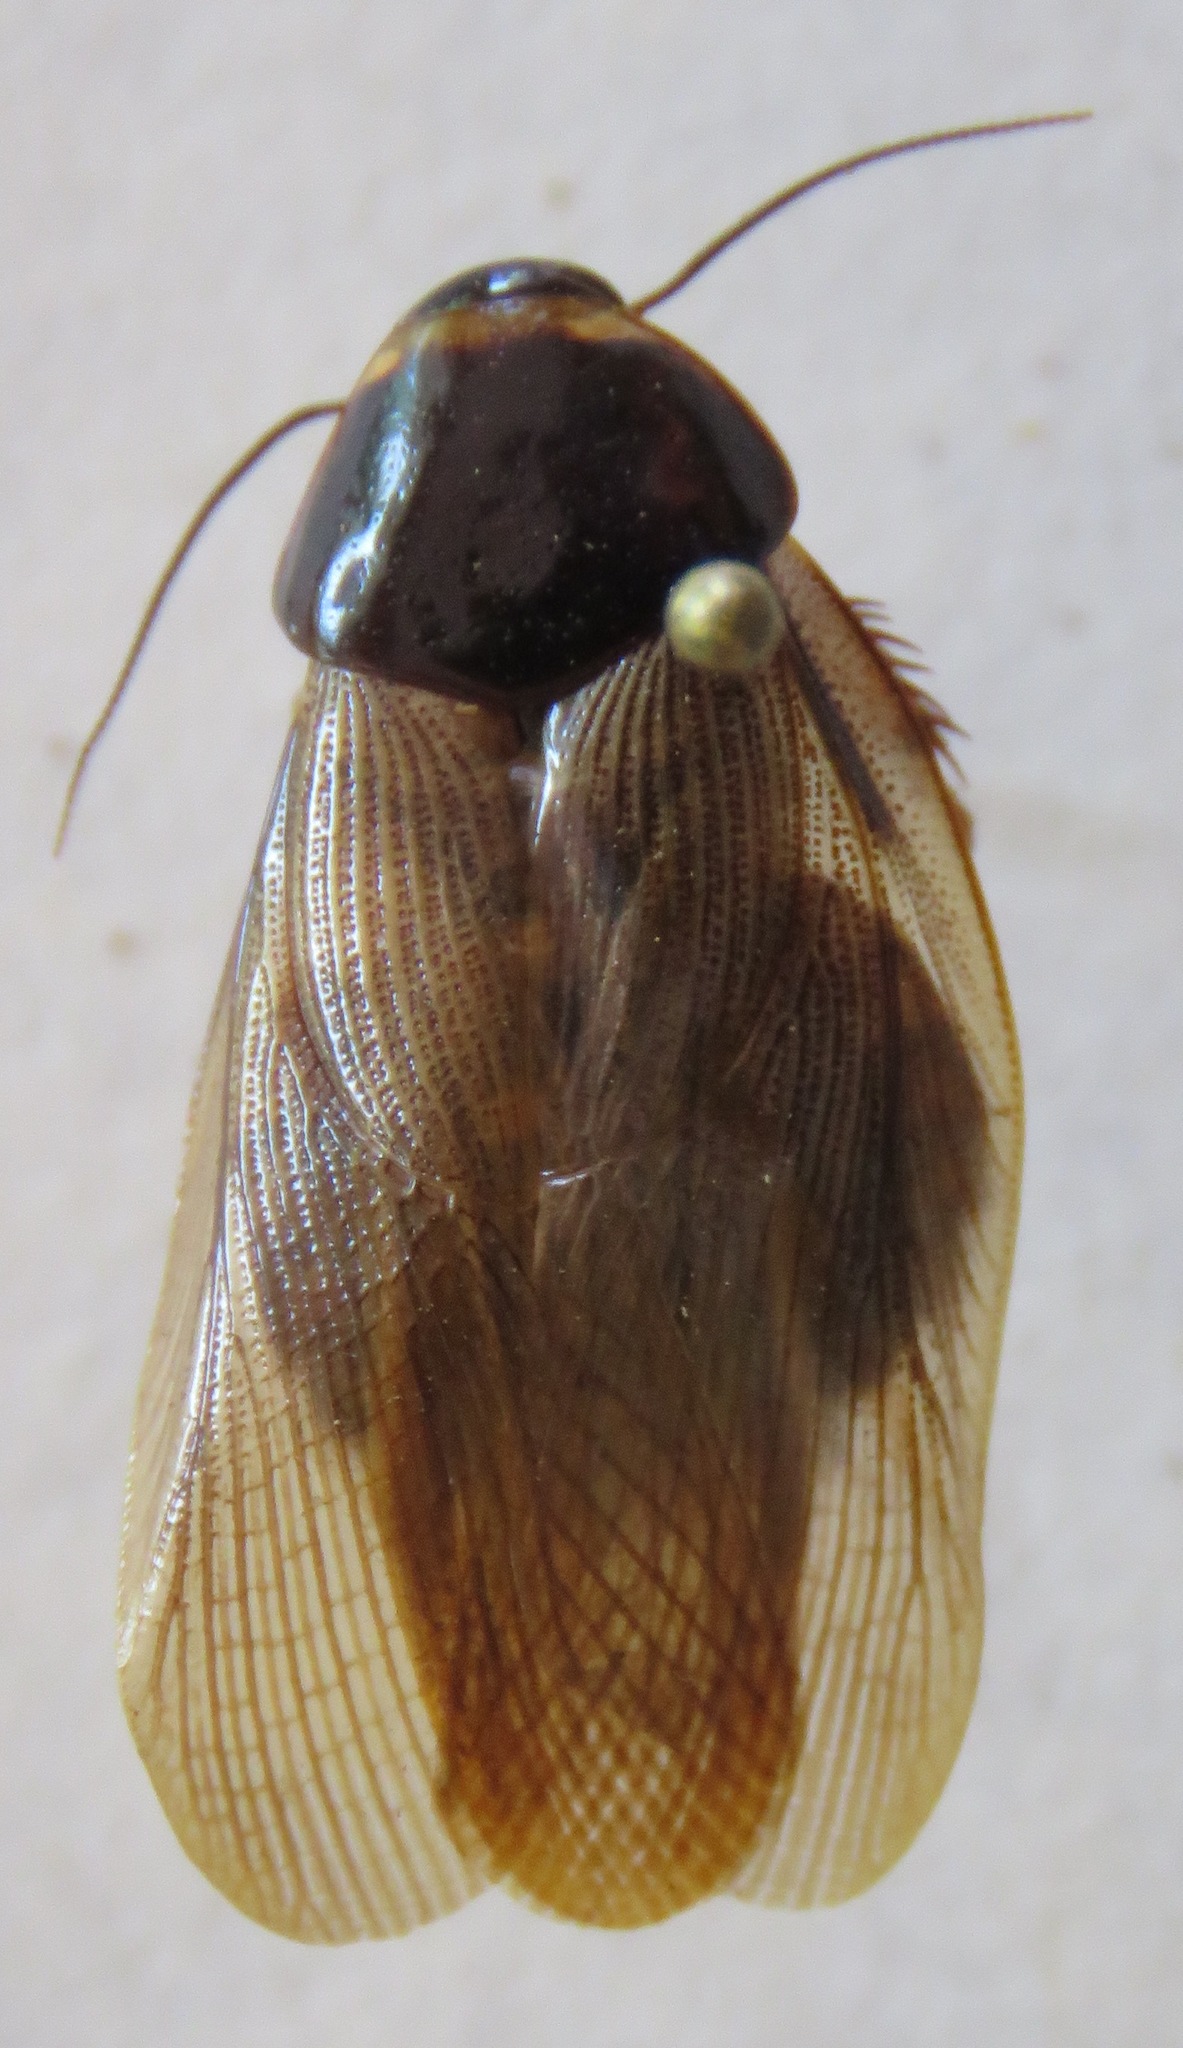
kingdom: Animalia
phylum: Arthropoda
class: Insecta
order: Blattodea
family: Blaberidae
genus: Pycnoscelus
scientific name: Pycnoscelus surinamensis
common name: Surinam cockroach
